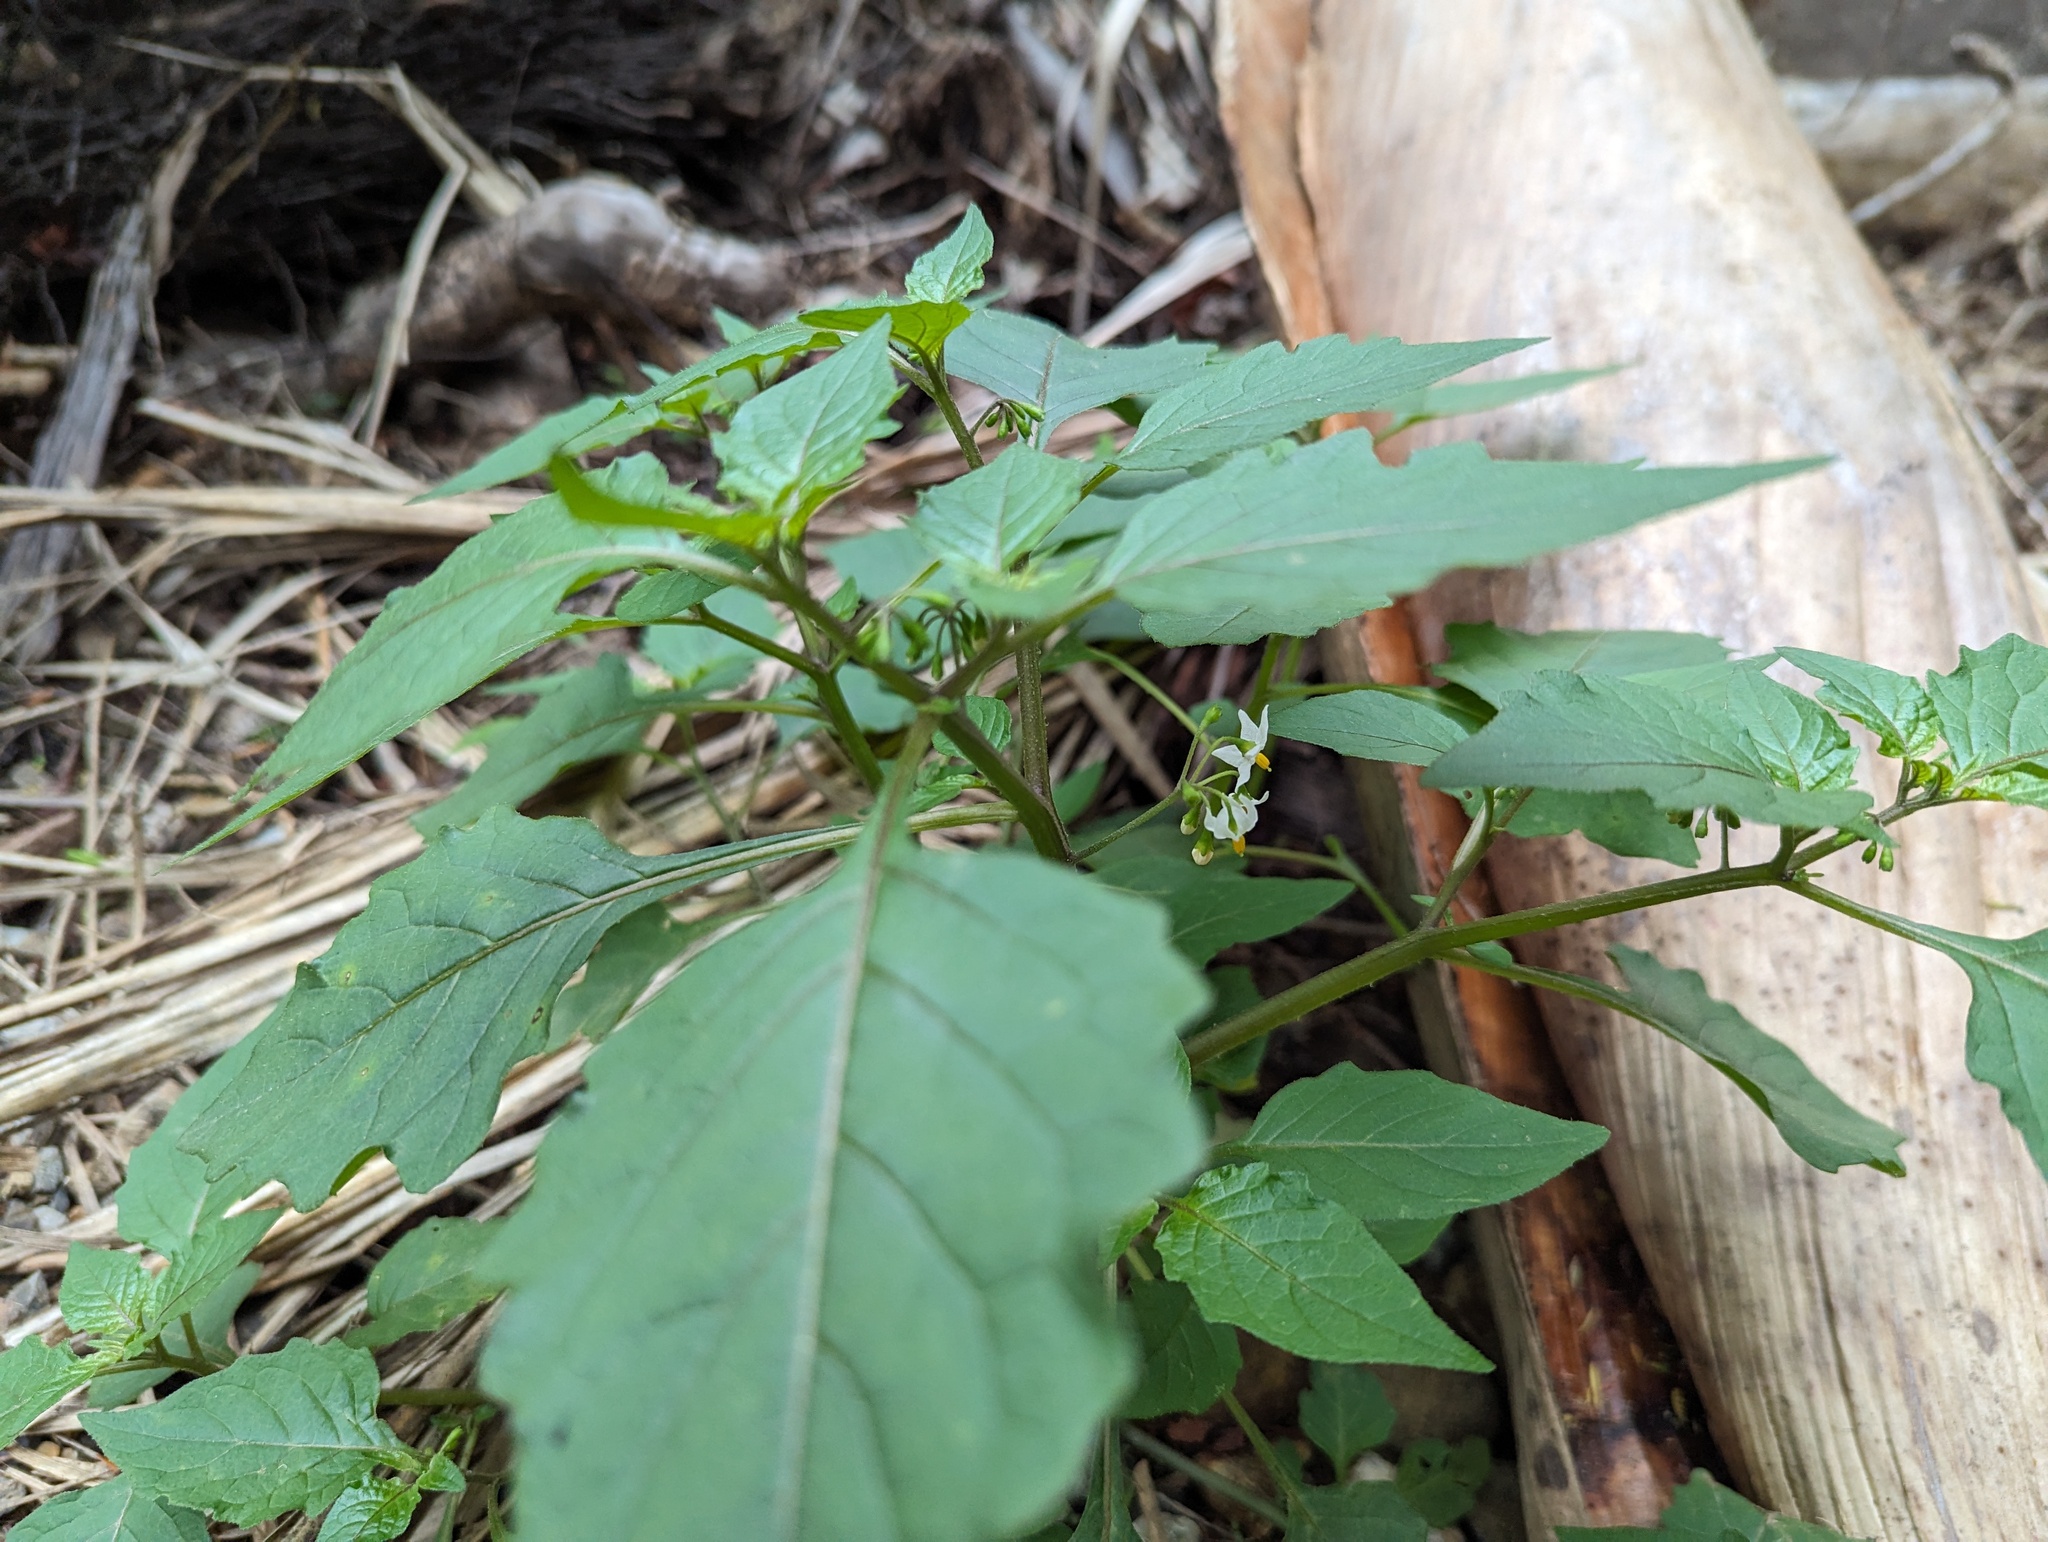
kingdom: Plantae
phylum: Tracheophyta
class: Magnoliopsida
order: Solanales
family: Solanaceae
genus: Solanum
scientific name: Solanum nigrum
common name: Black nightshade
